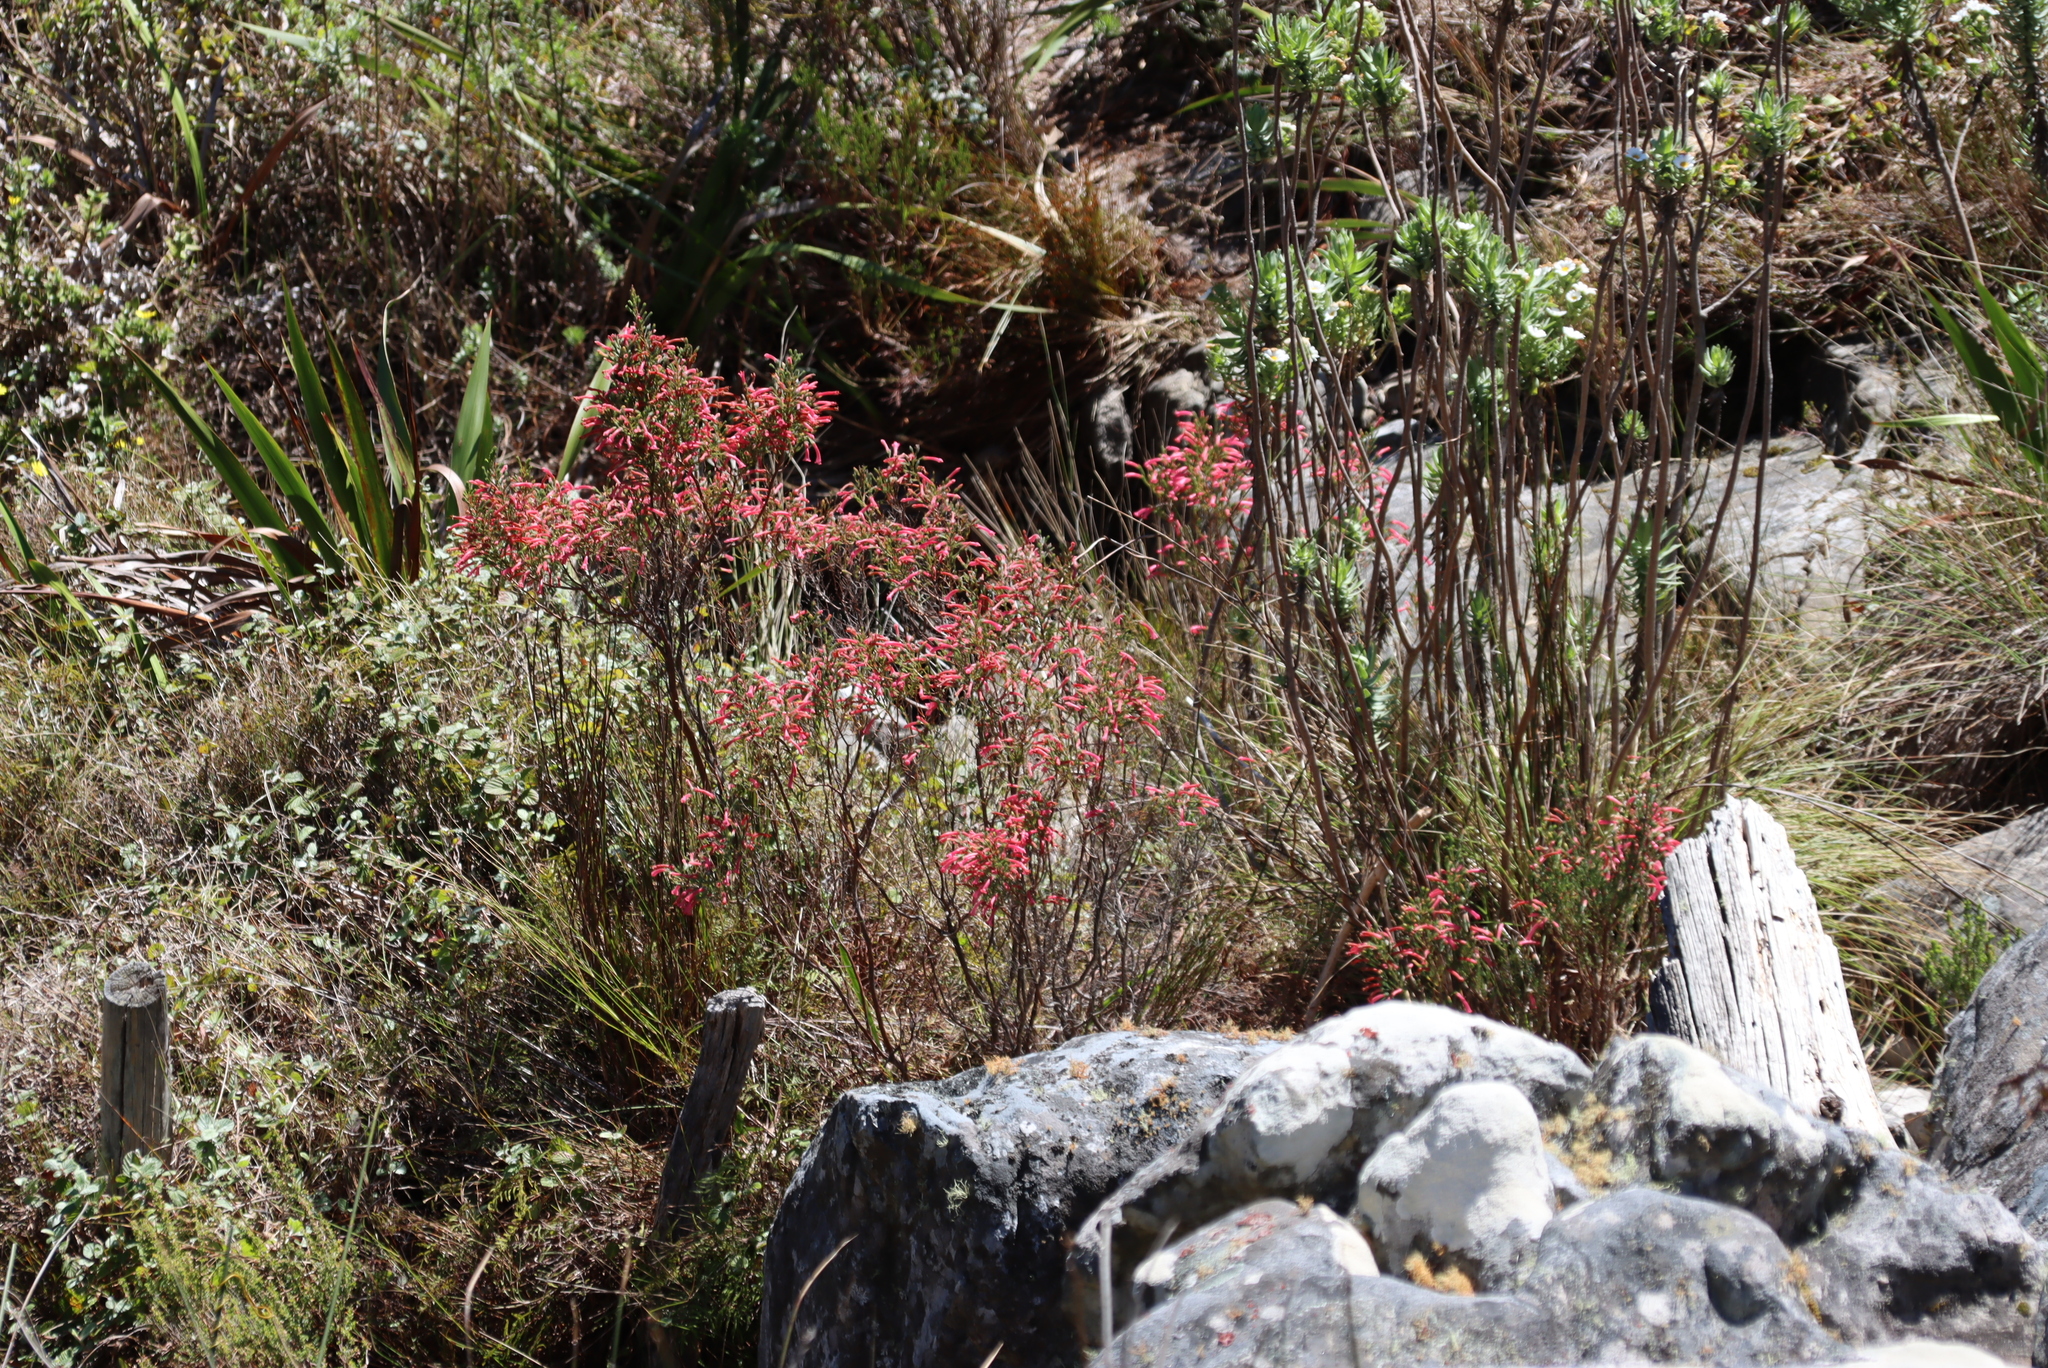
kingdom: Plantae
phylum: Tracheophyta
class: Magnoliopsida
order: Ericales
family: Ericaceae
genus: Erica
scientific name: Erica curviflora
